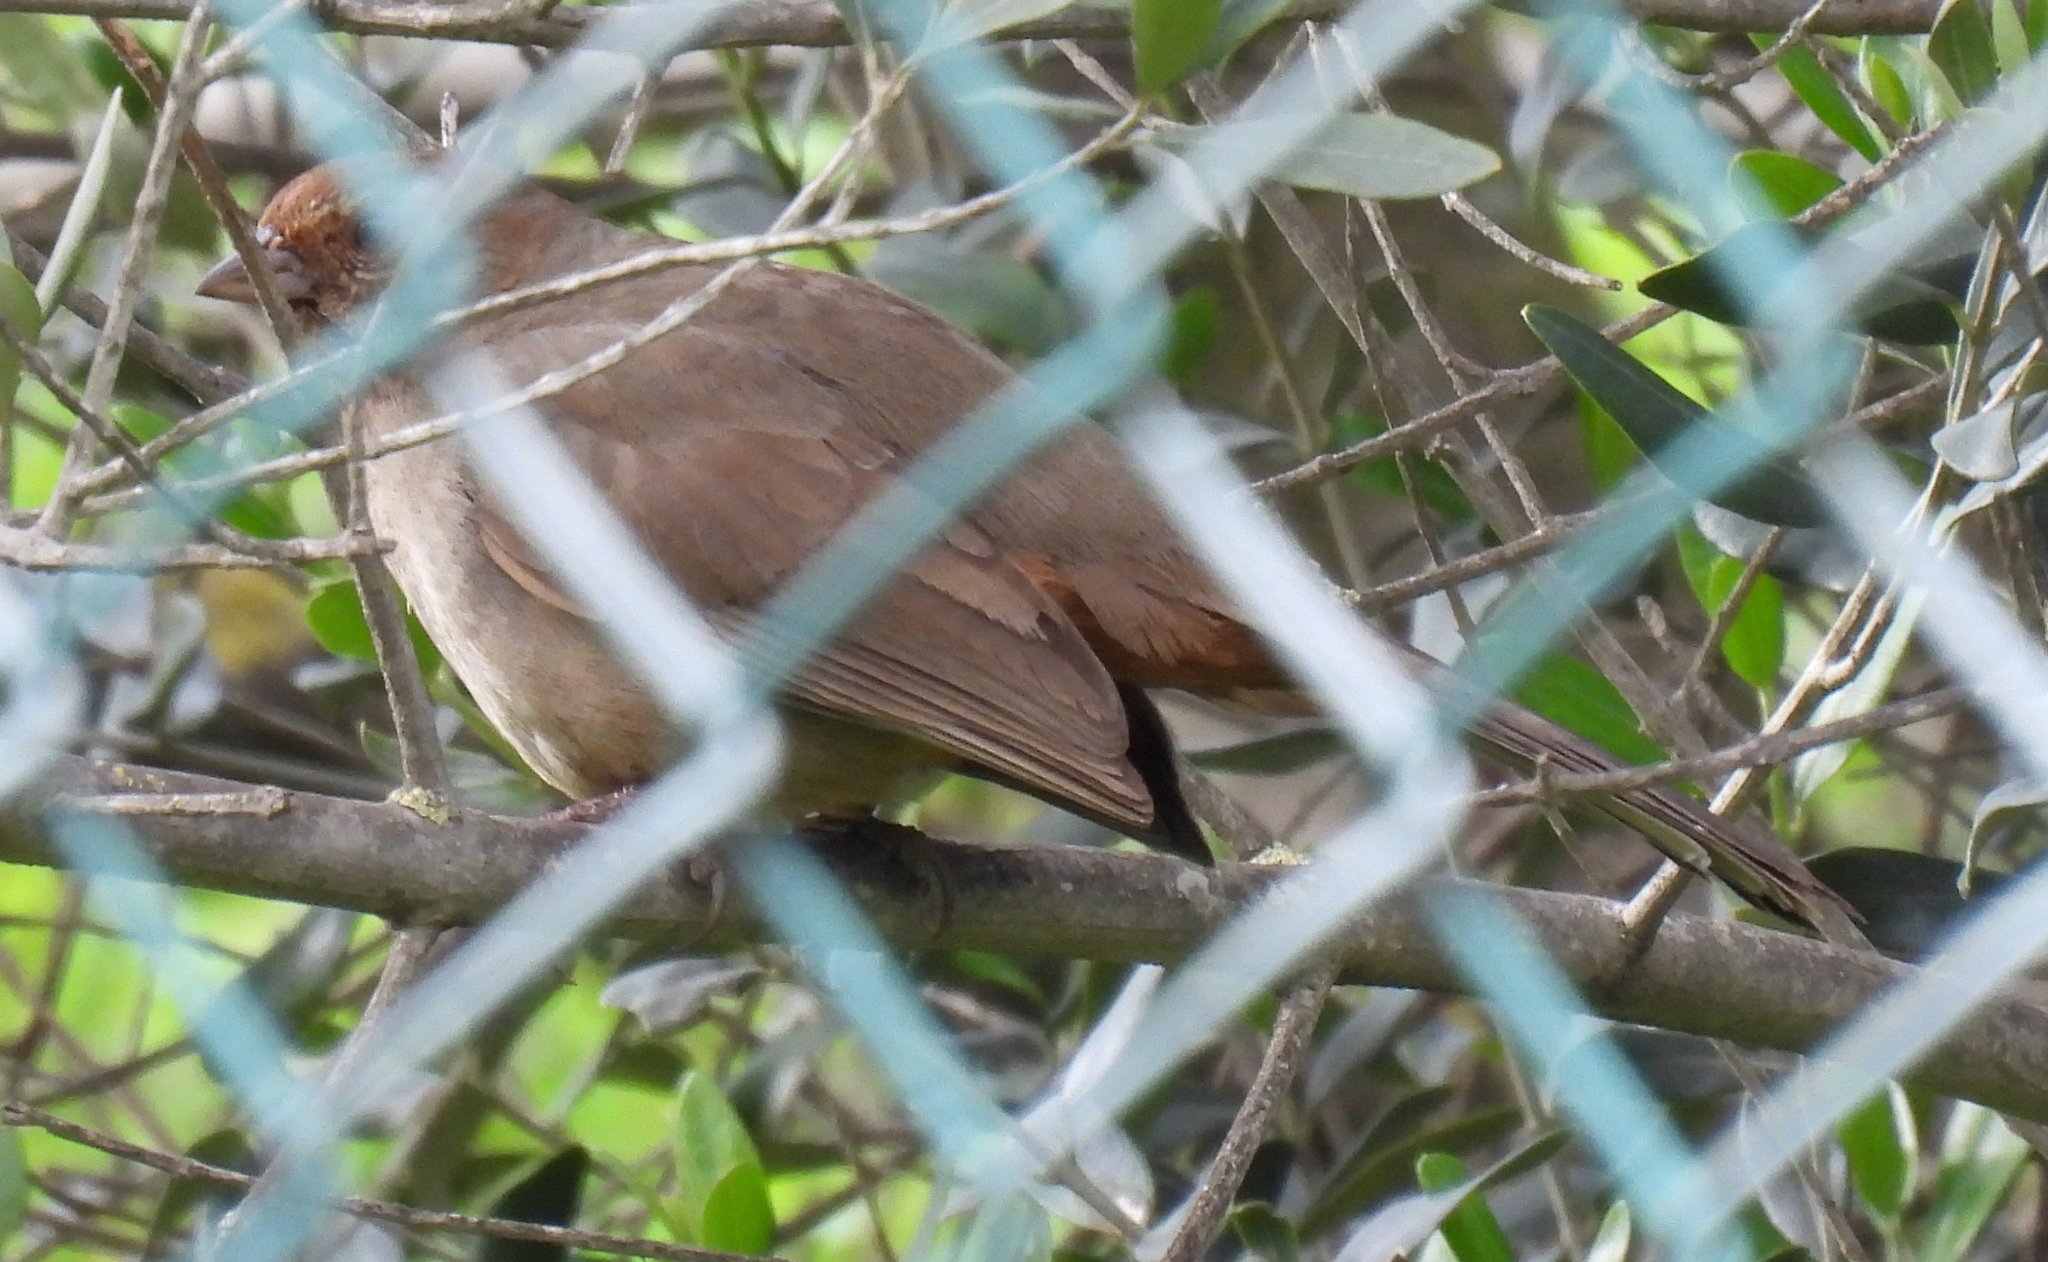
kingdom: Animalia
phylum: Chordata
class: Aves
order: Passeriformes
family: Passerellidae
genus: Melozone
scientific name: Melozone crissalis
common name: California towhee
